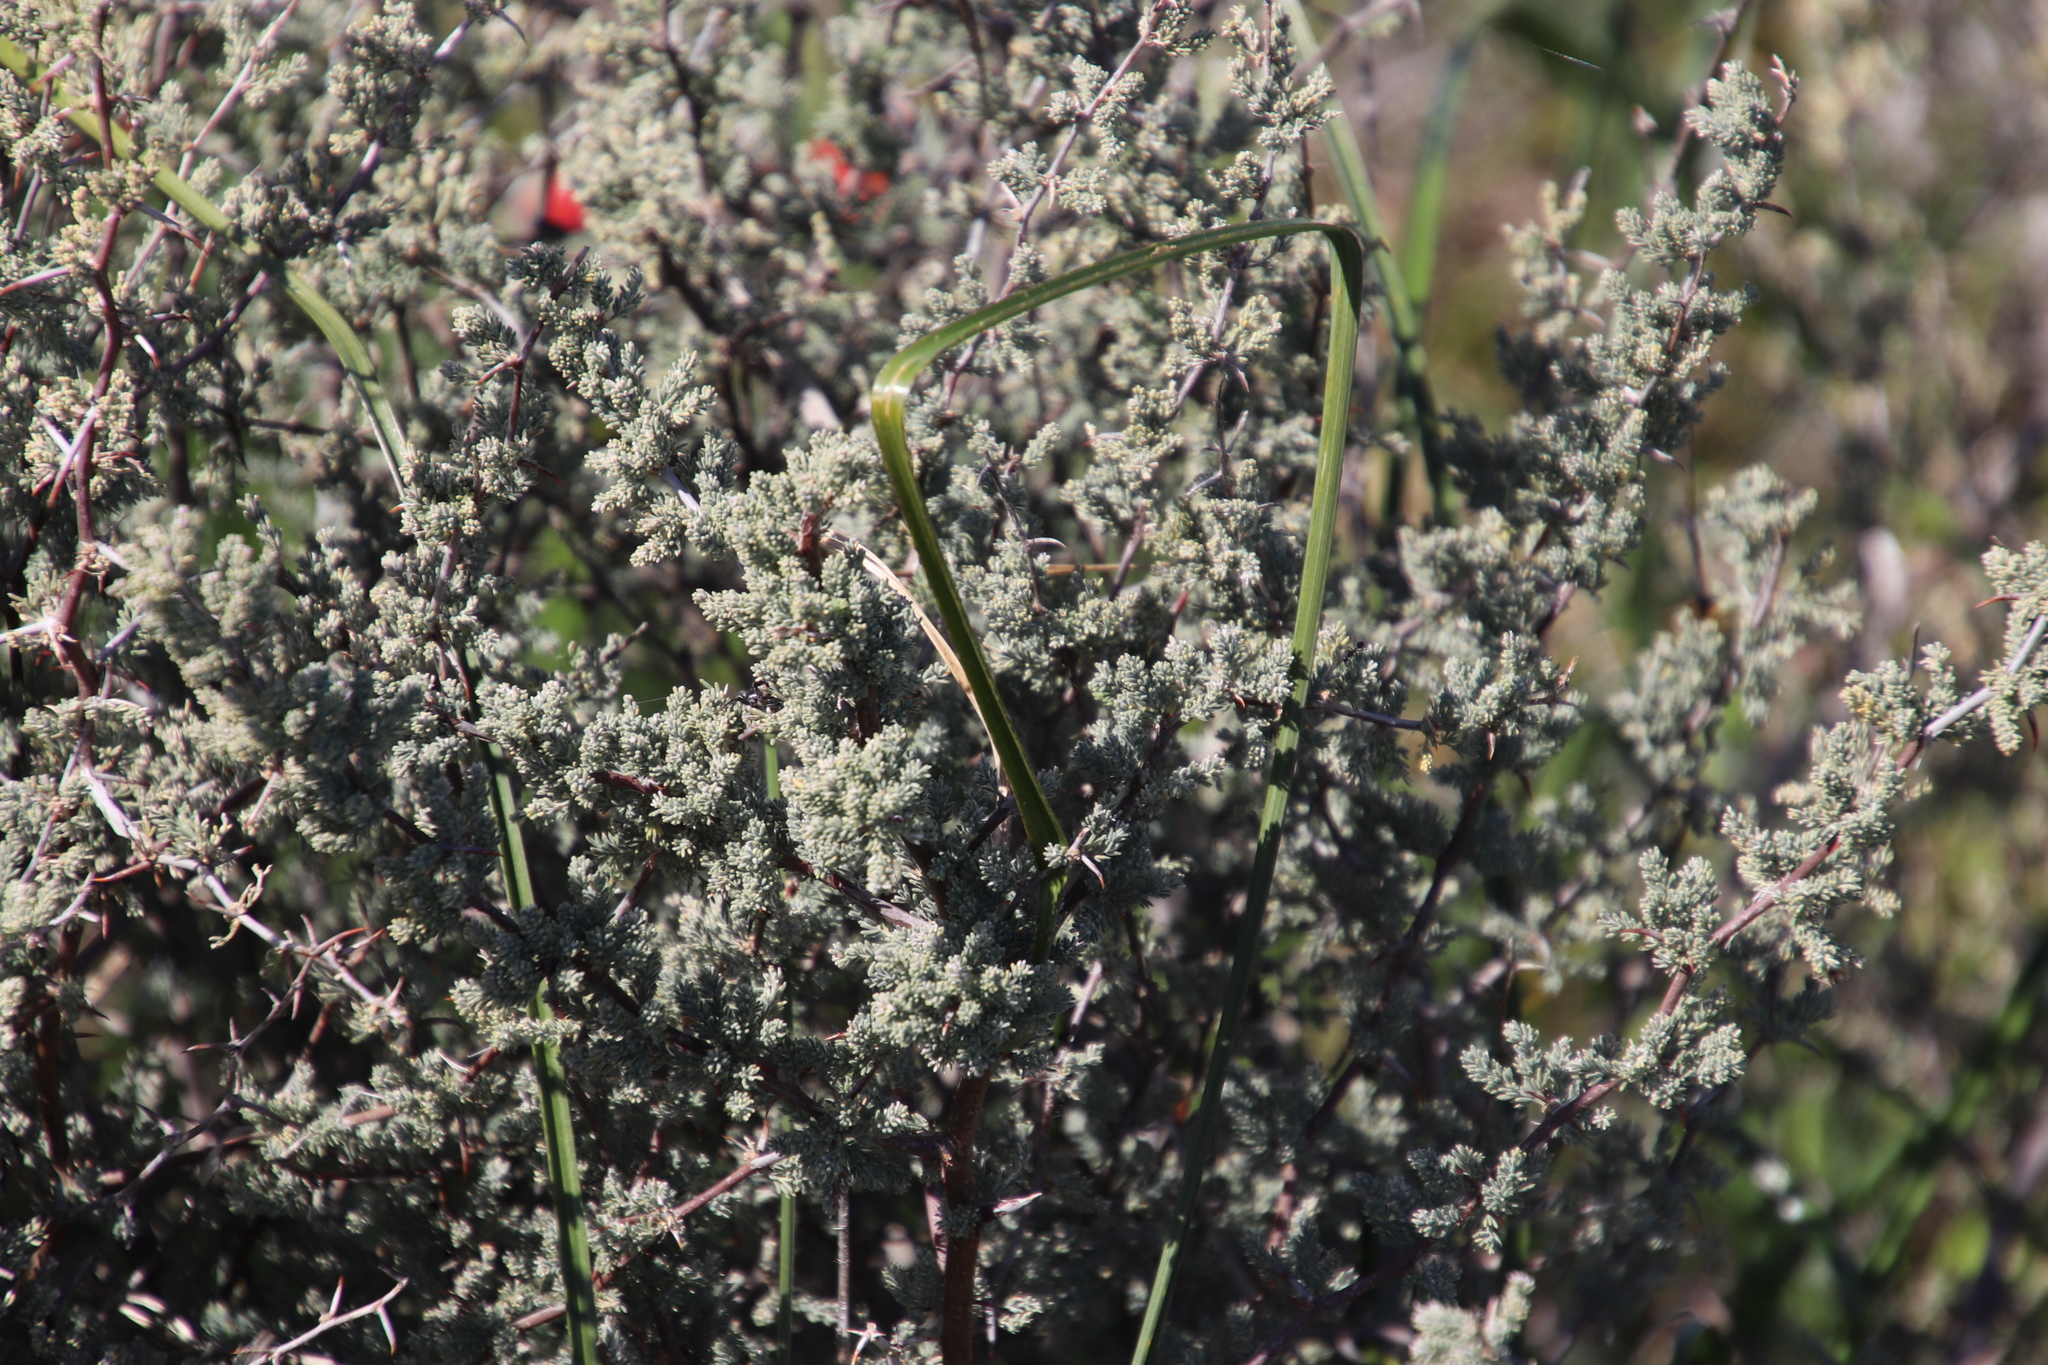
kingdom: Plantae
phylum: Tracheophyta
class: Liliopsida
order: Asparagales
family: Asparagaceae
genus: Asparagus
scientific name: Asparagus capensis
